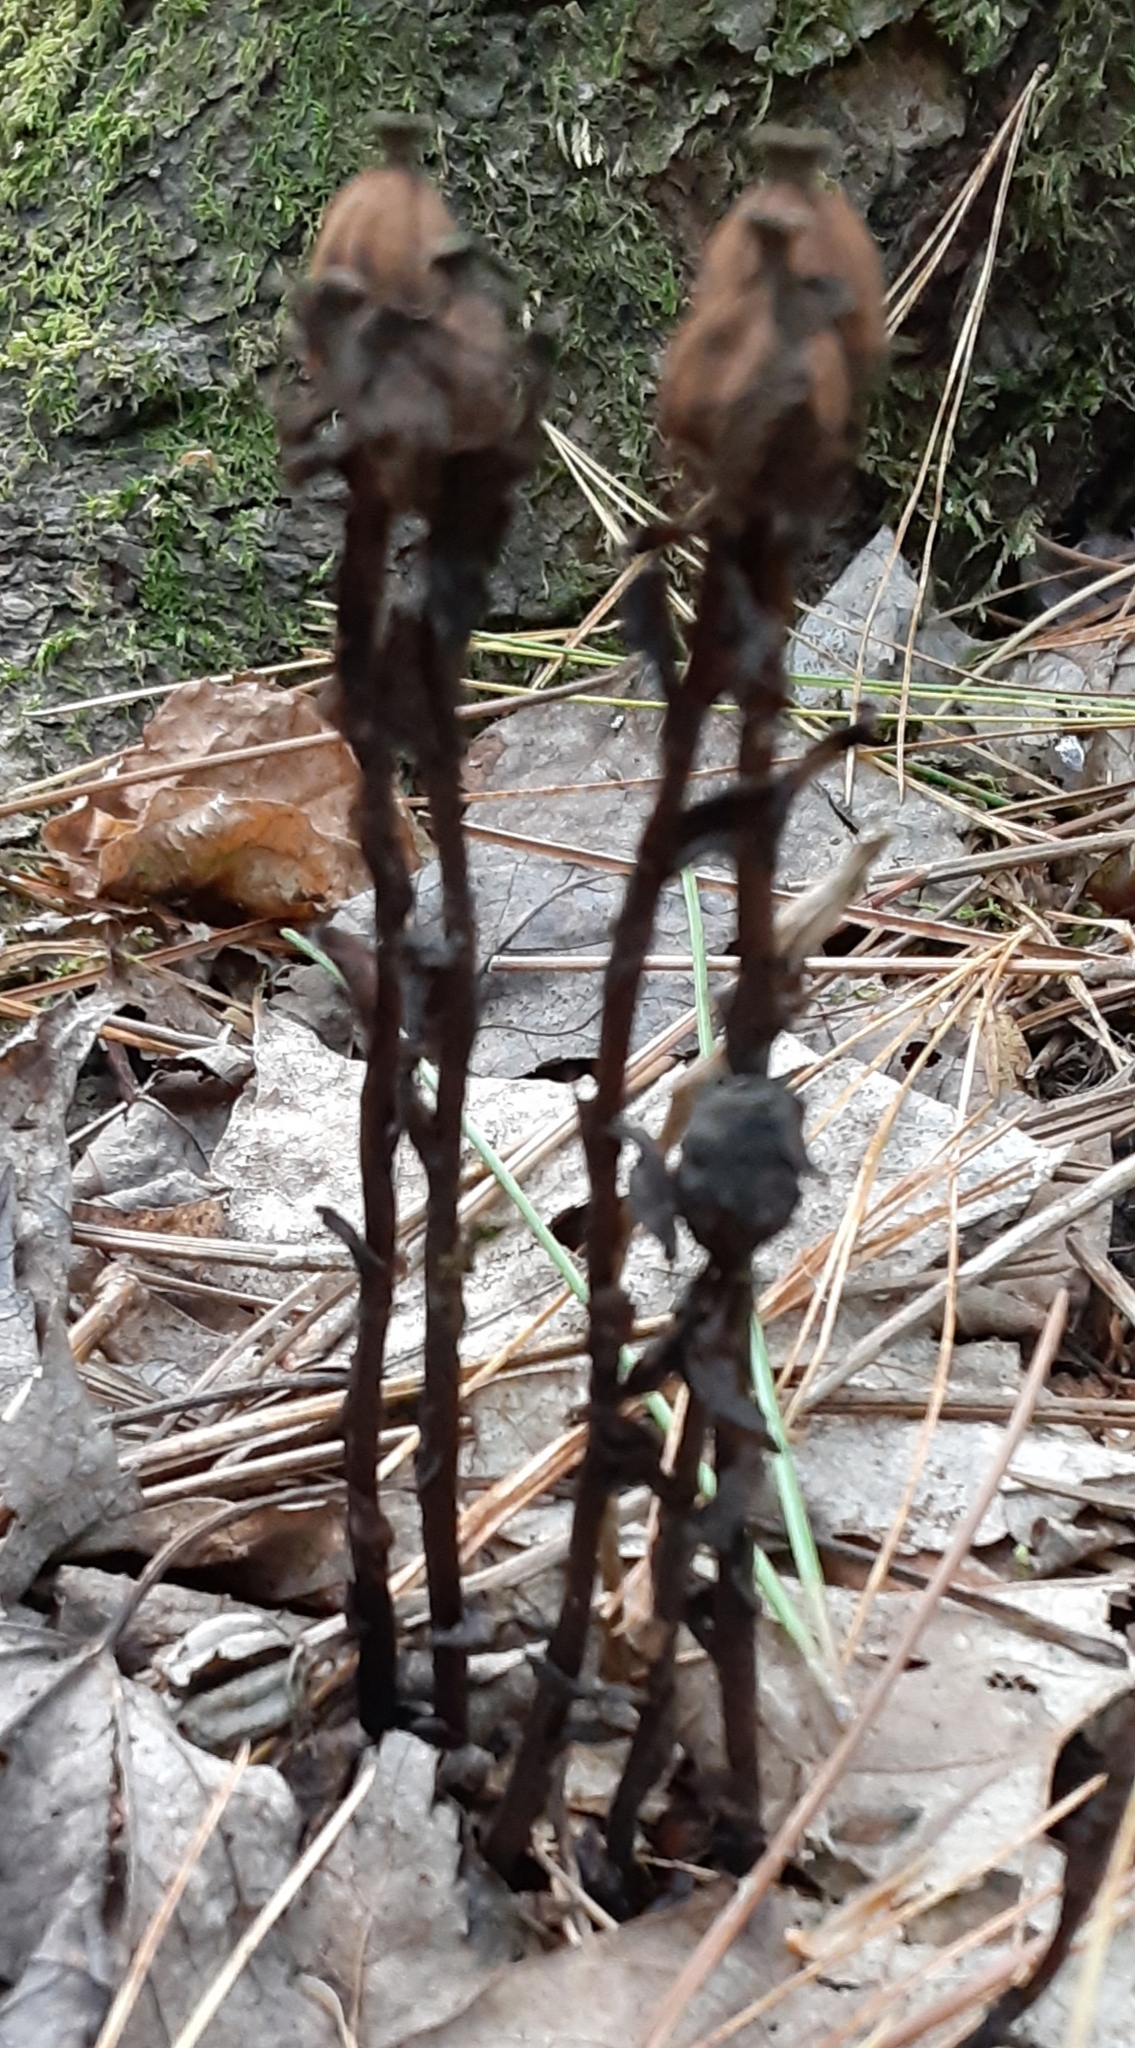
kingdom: Plantae
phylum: Tracheophyta
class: Magnoliopsida
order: Ericales
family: Ericaceae
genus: Monotropa
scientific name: Monotropa uniflora
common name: Convulsion root
